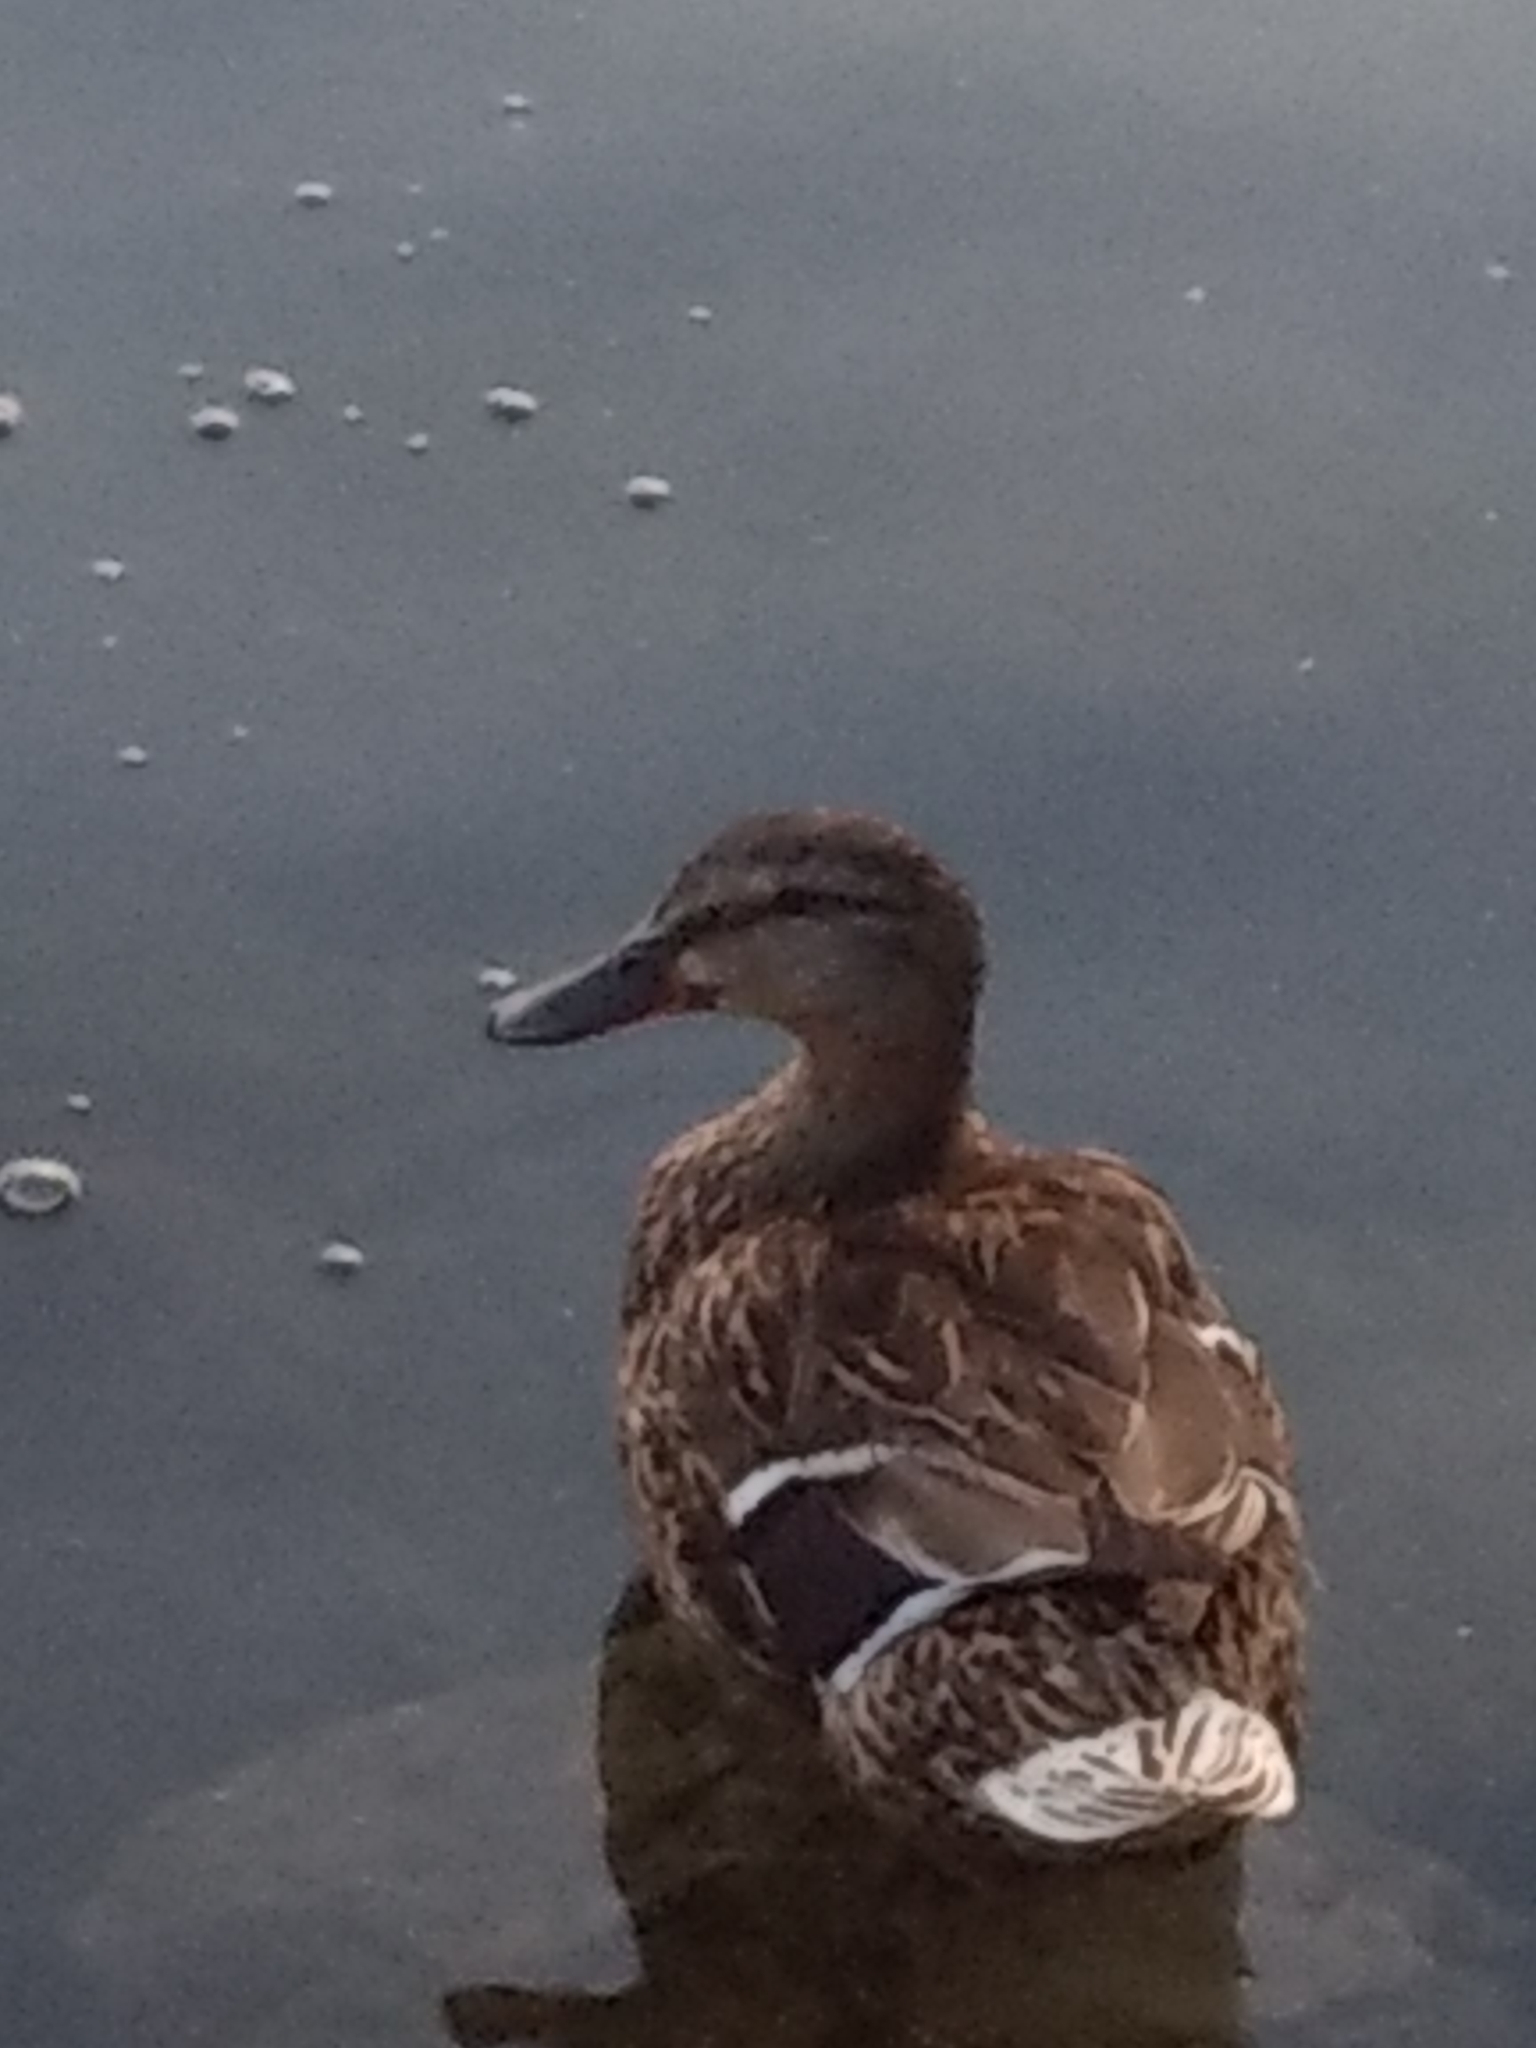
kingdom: Animalia
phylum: Chordata
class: Aves
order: Anseriformes
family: Anatidae
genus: Anas
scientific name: Anas platyrhynchos
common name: Mallard
